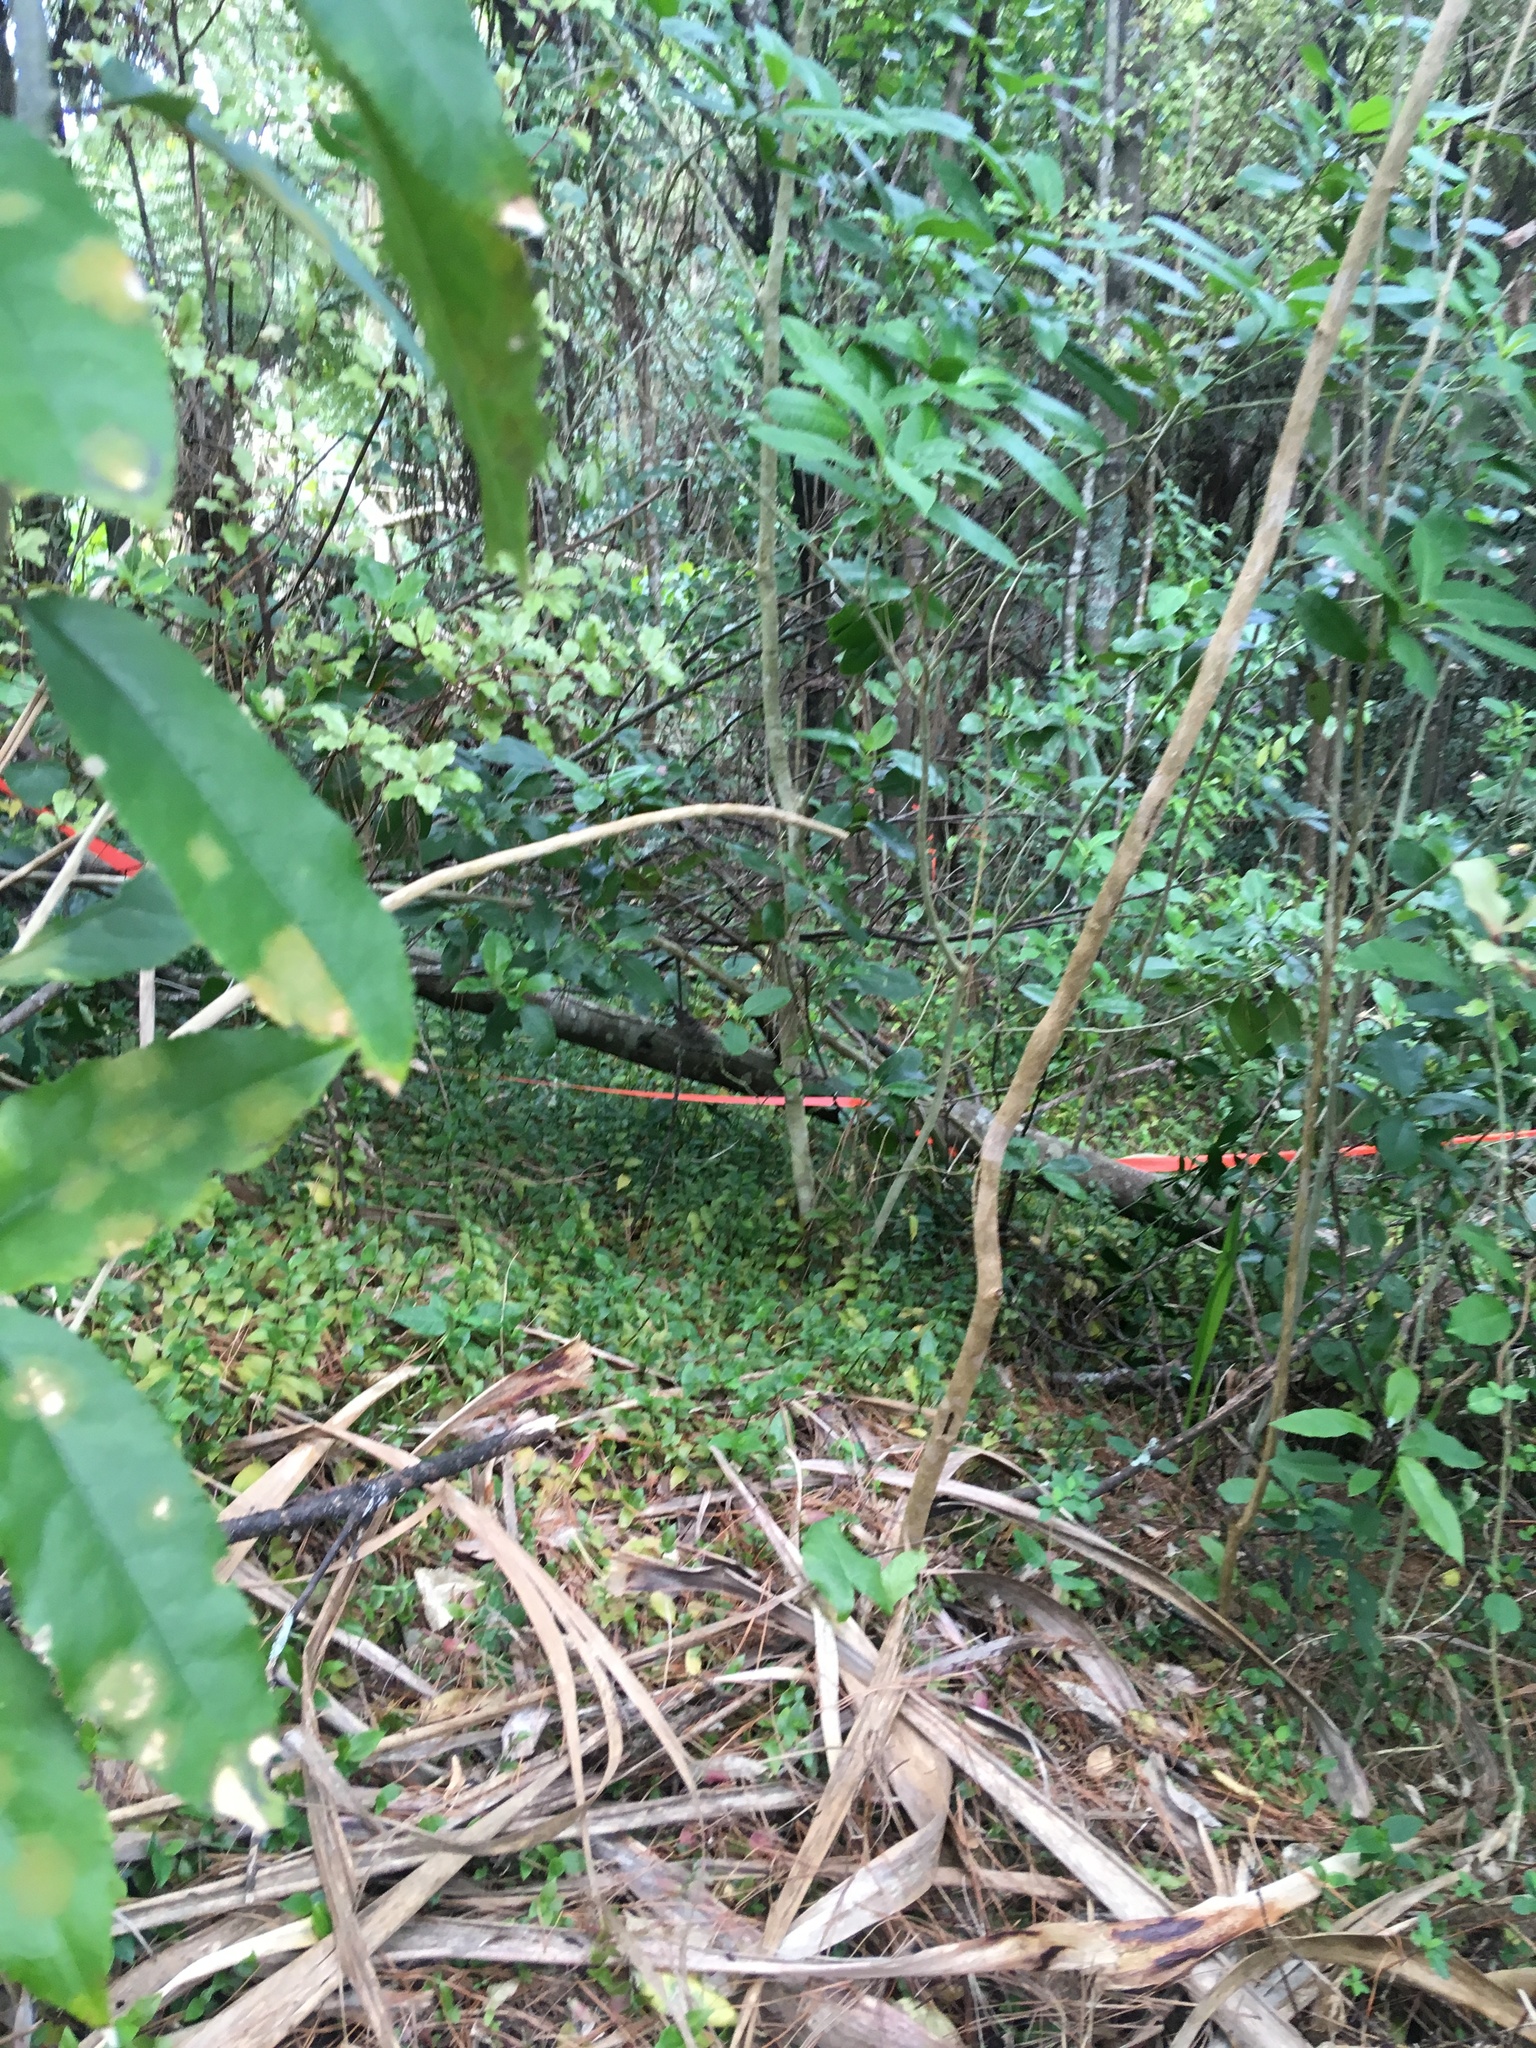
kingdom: Plantae
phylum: Tracheophyta
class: Liliopsida
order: Commelinales
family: Commelinaceae
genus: Tradescantia
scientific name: Tradescantia fluminensis
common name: Wandering-jew
